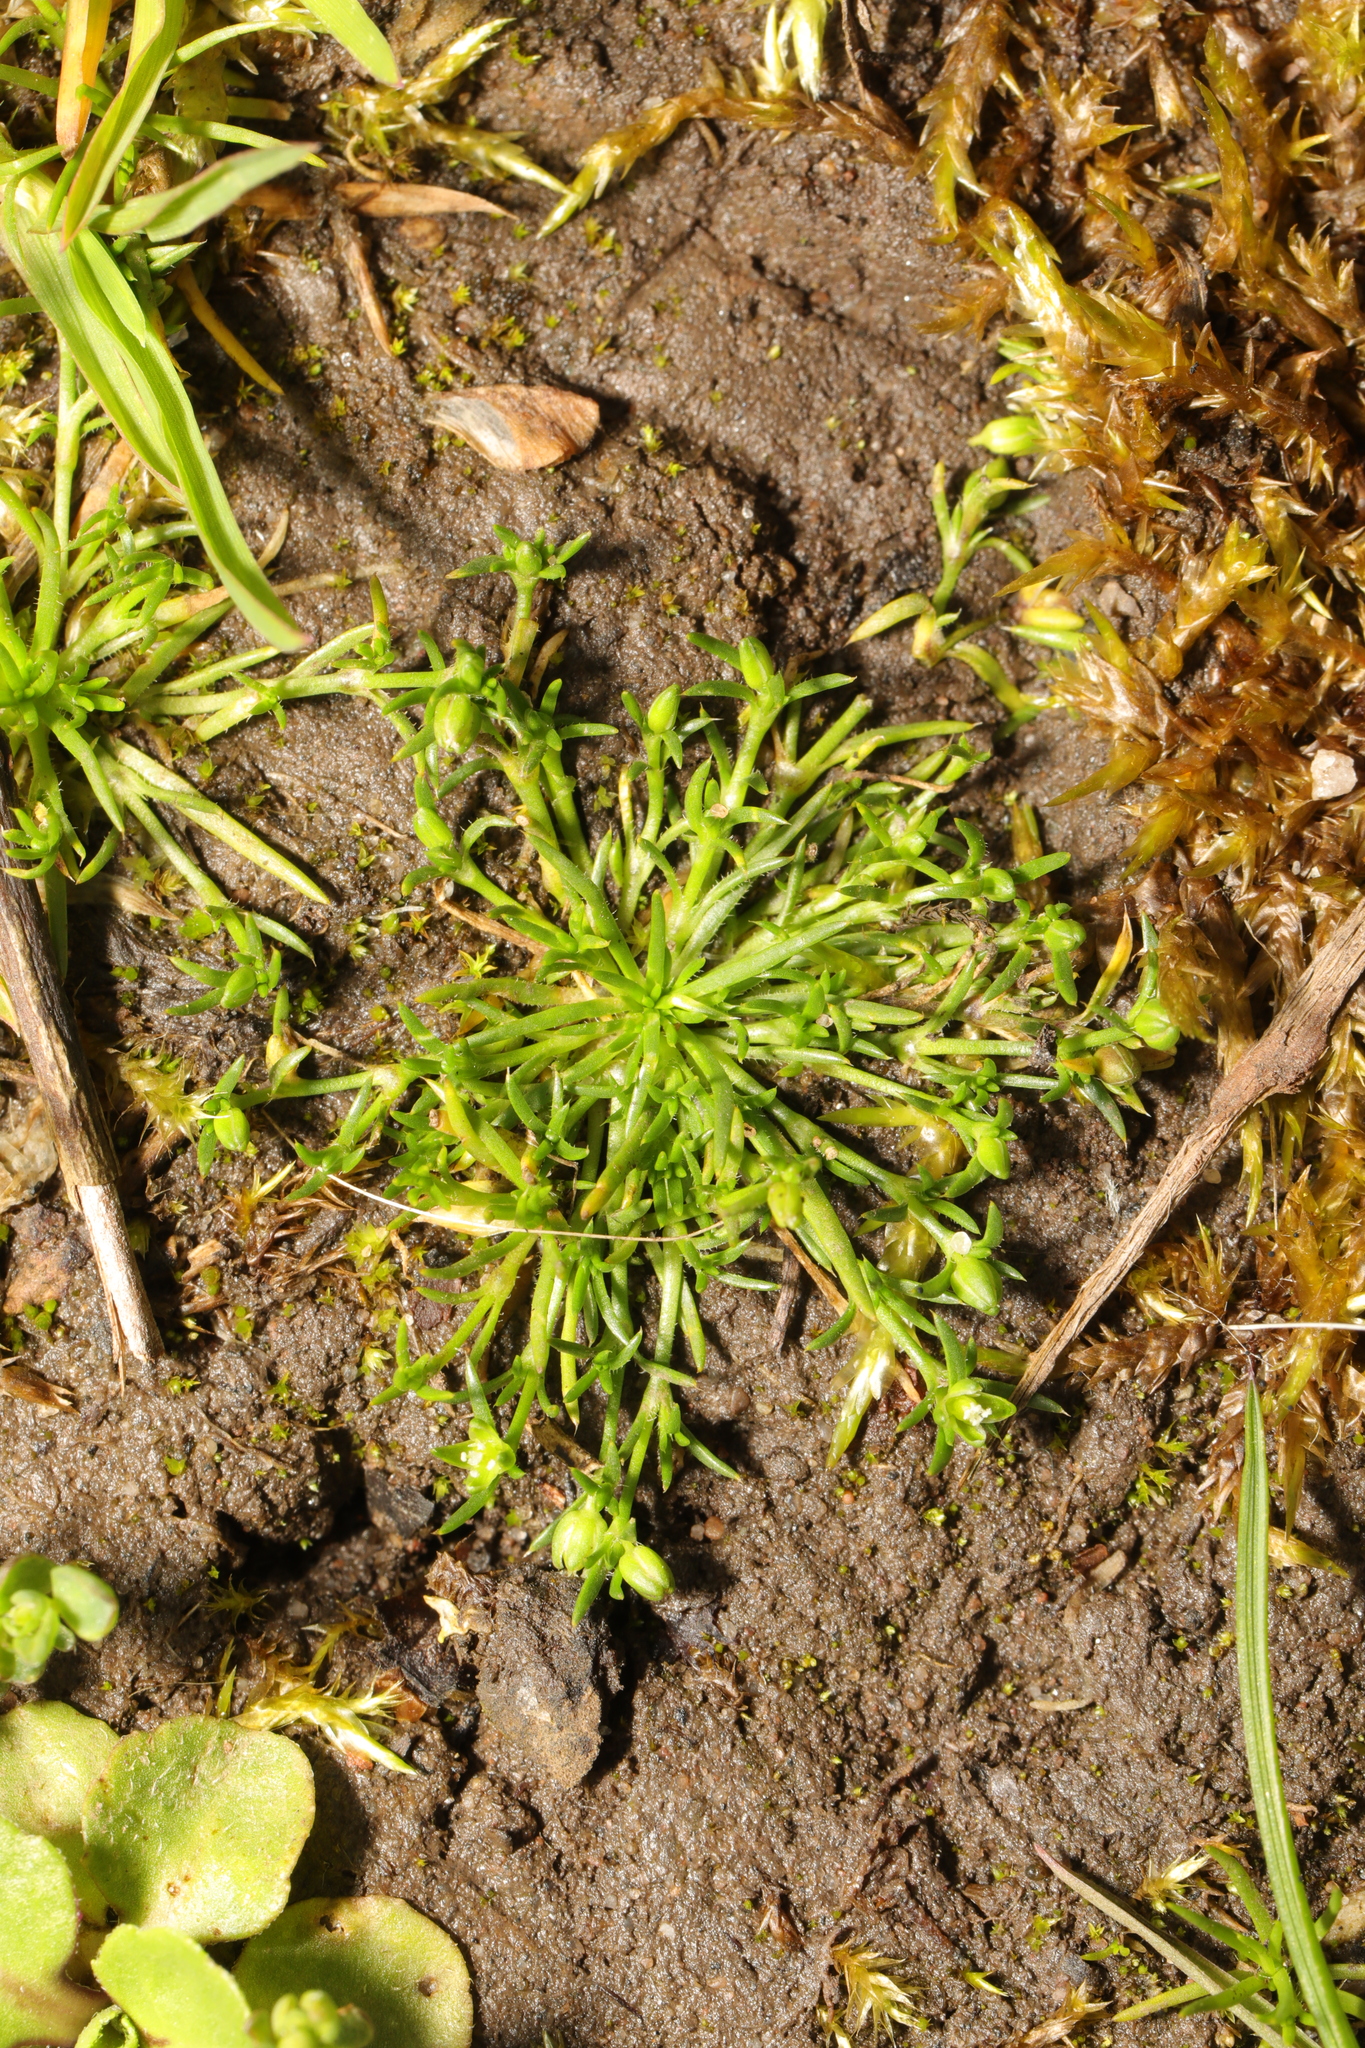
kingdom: Plantae
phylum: Tracheophyta
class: Magnoliopsida
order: Caryophyllales
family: Caryophyllaceae
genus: Sagina
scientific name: Sagina procumbens
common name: Procumbent pearlwort
